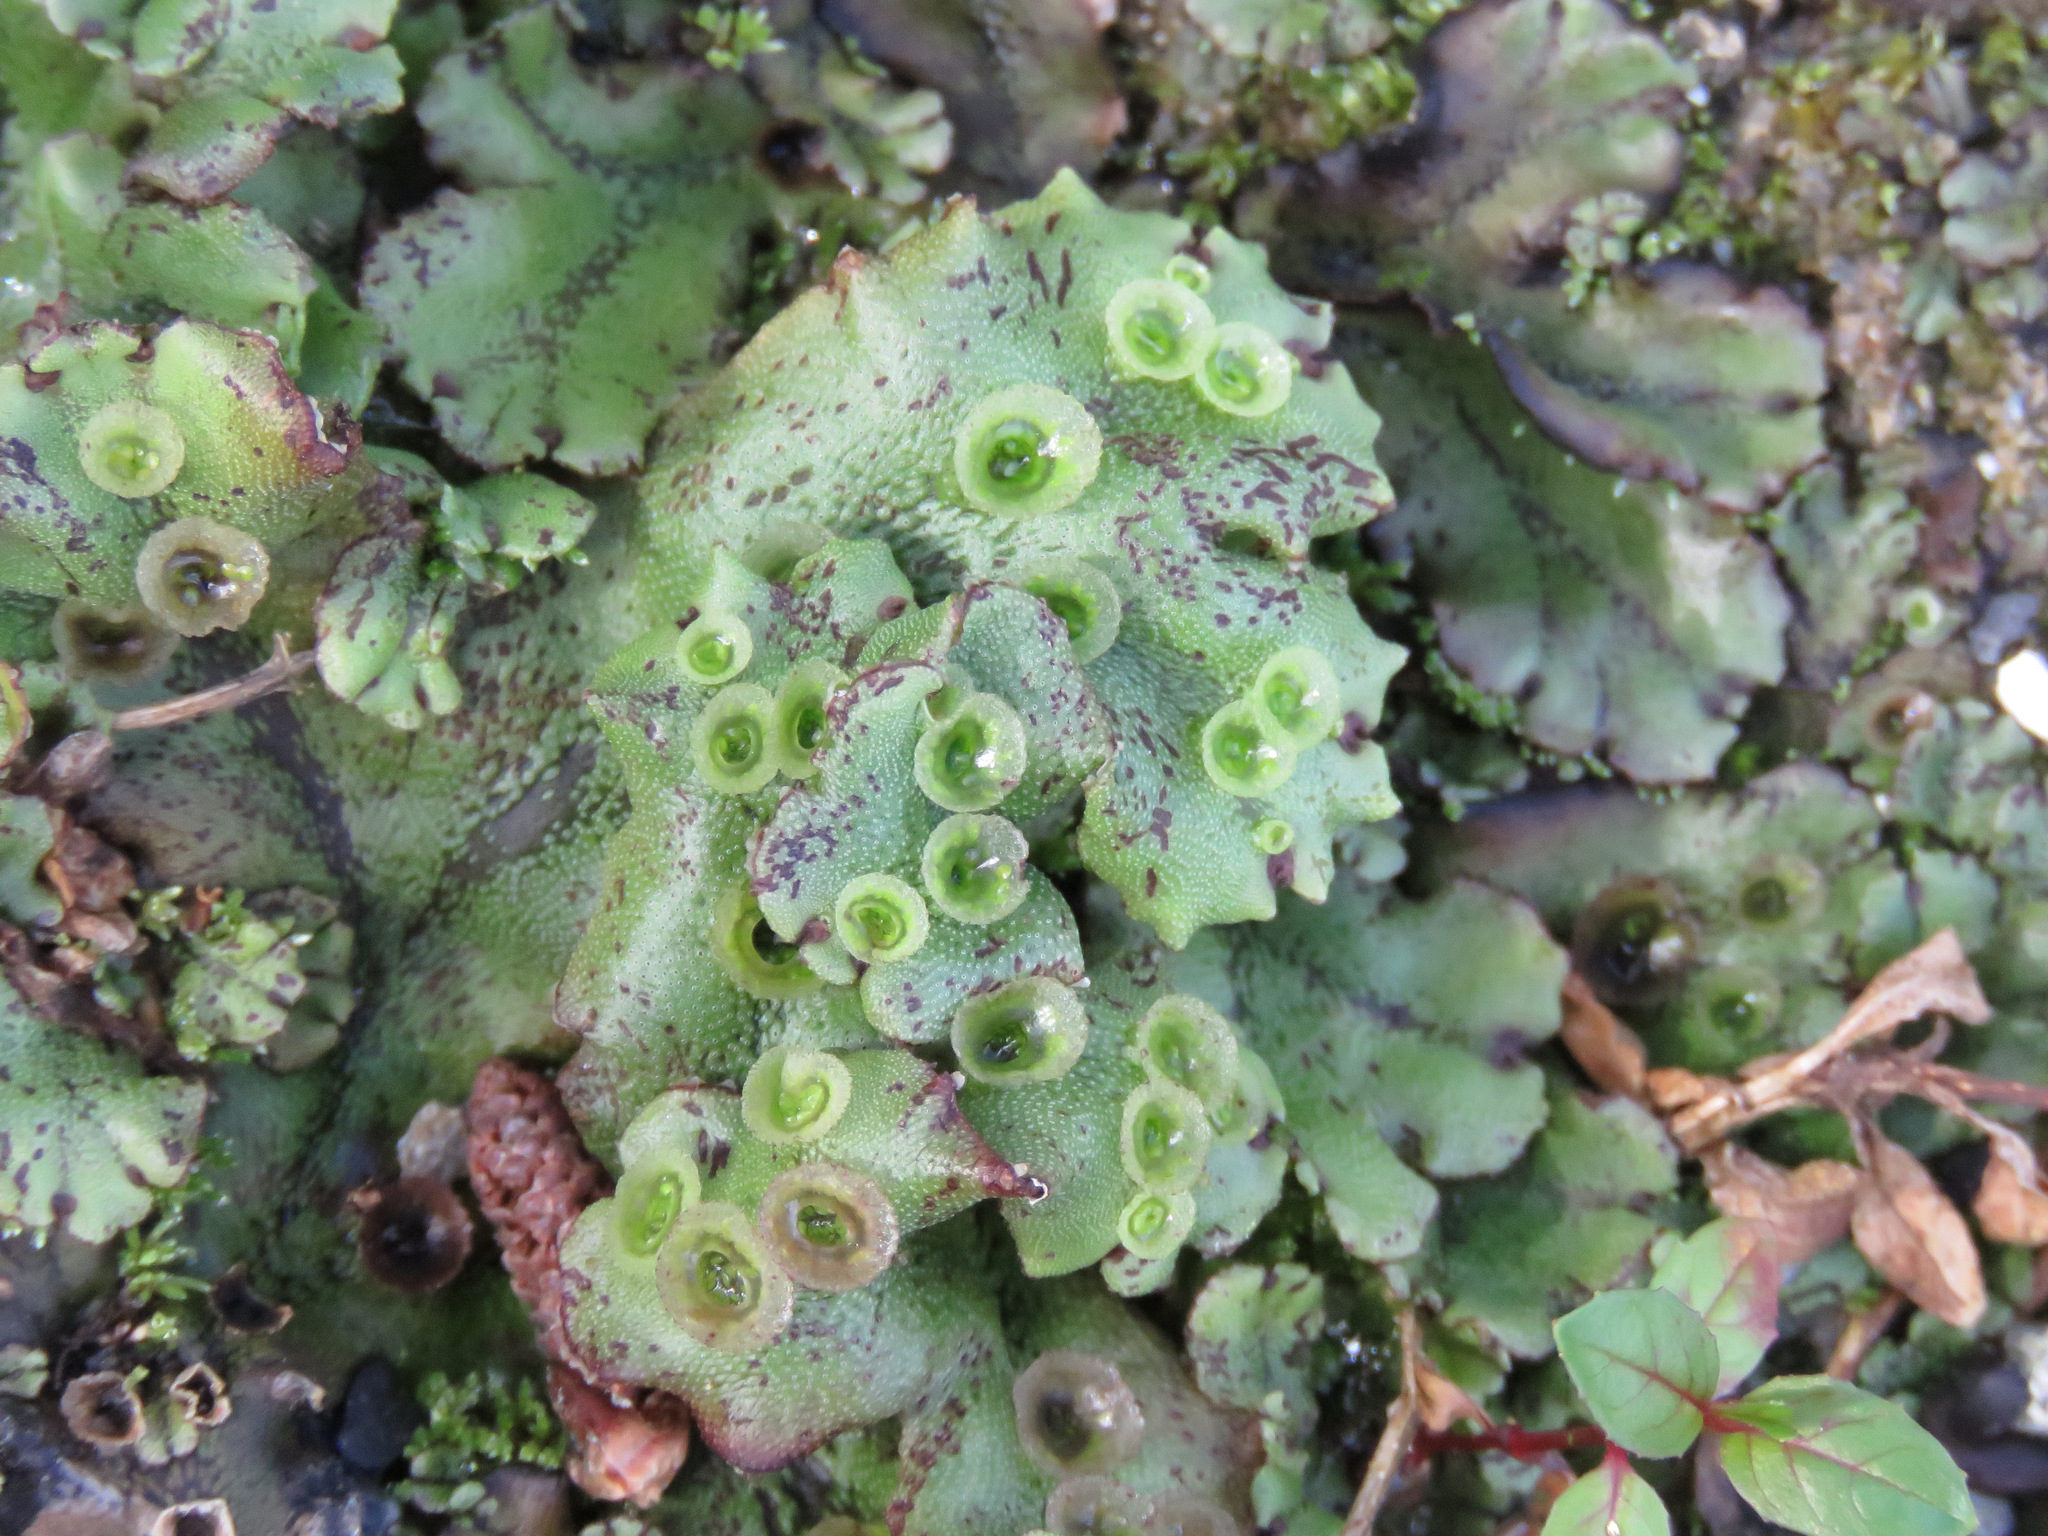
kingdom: Plantae
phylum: Marchantiophyta
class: Marchantiopsida
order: Marchantiales
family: Marchantiaceae
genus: Marchantia
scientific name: Marchantia polymorpha
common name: Common liverwort
